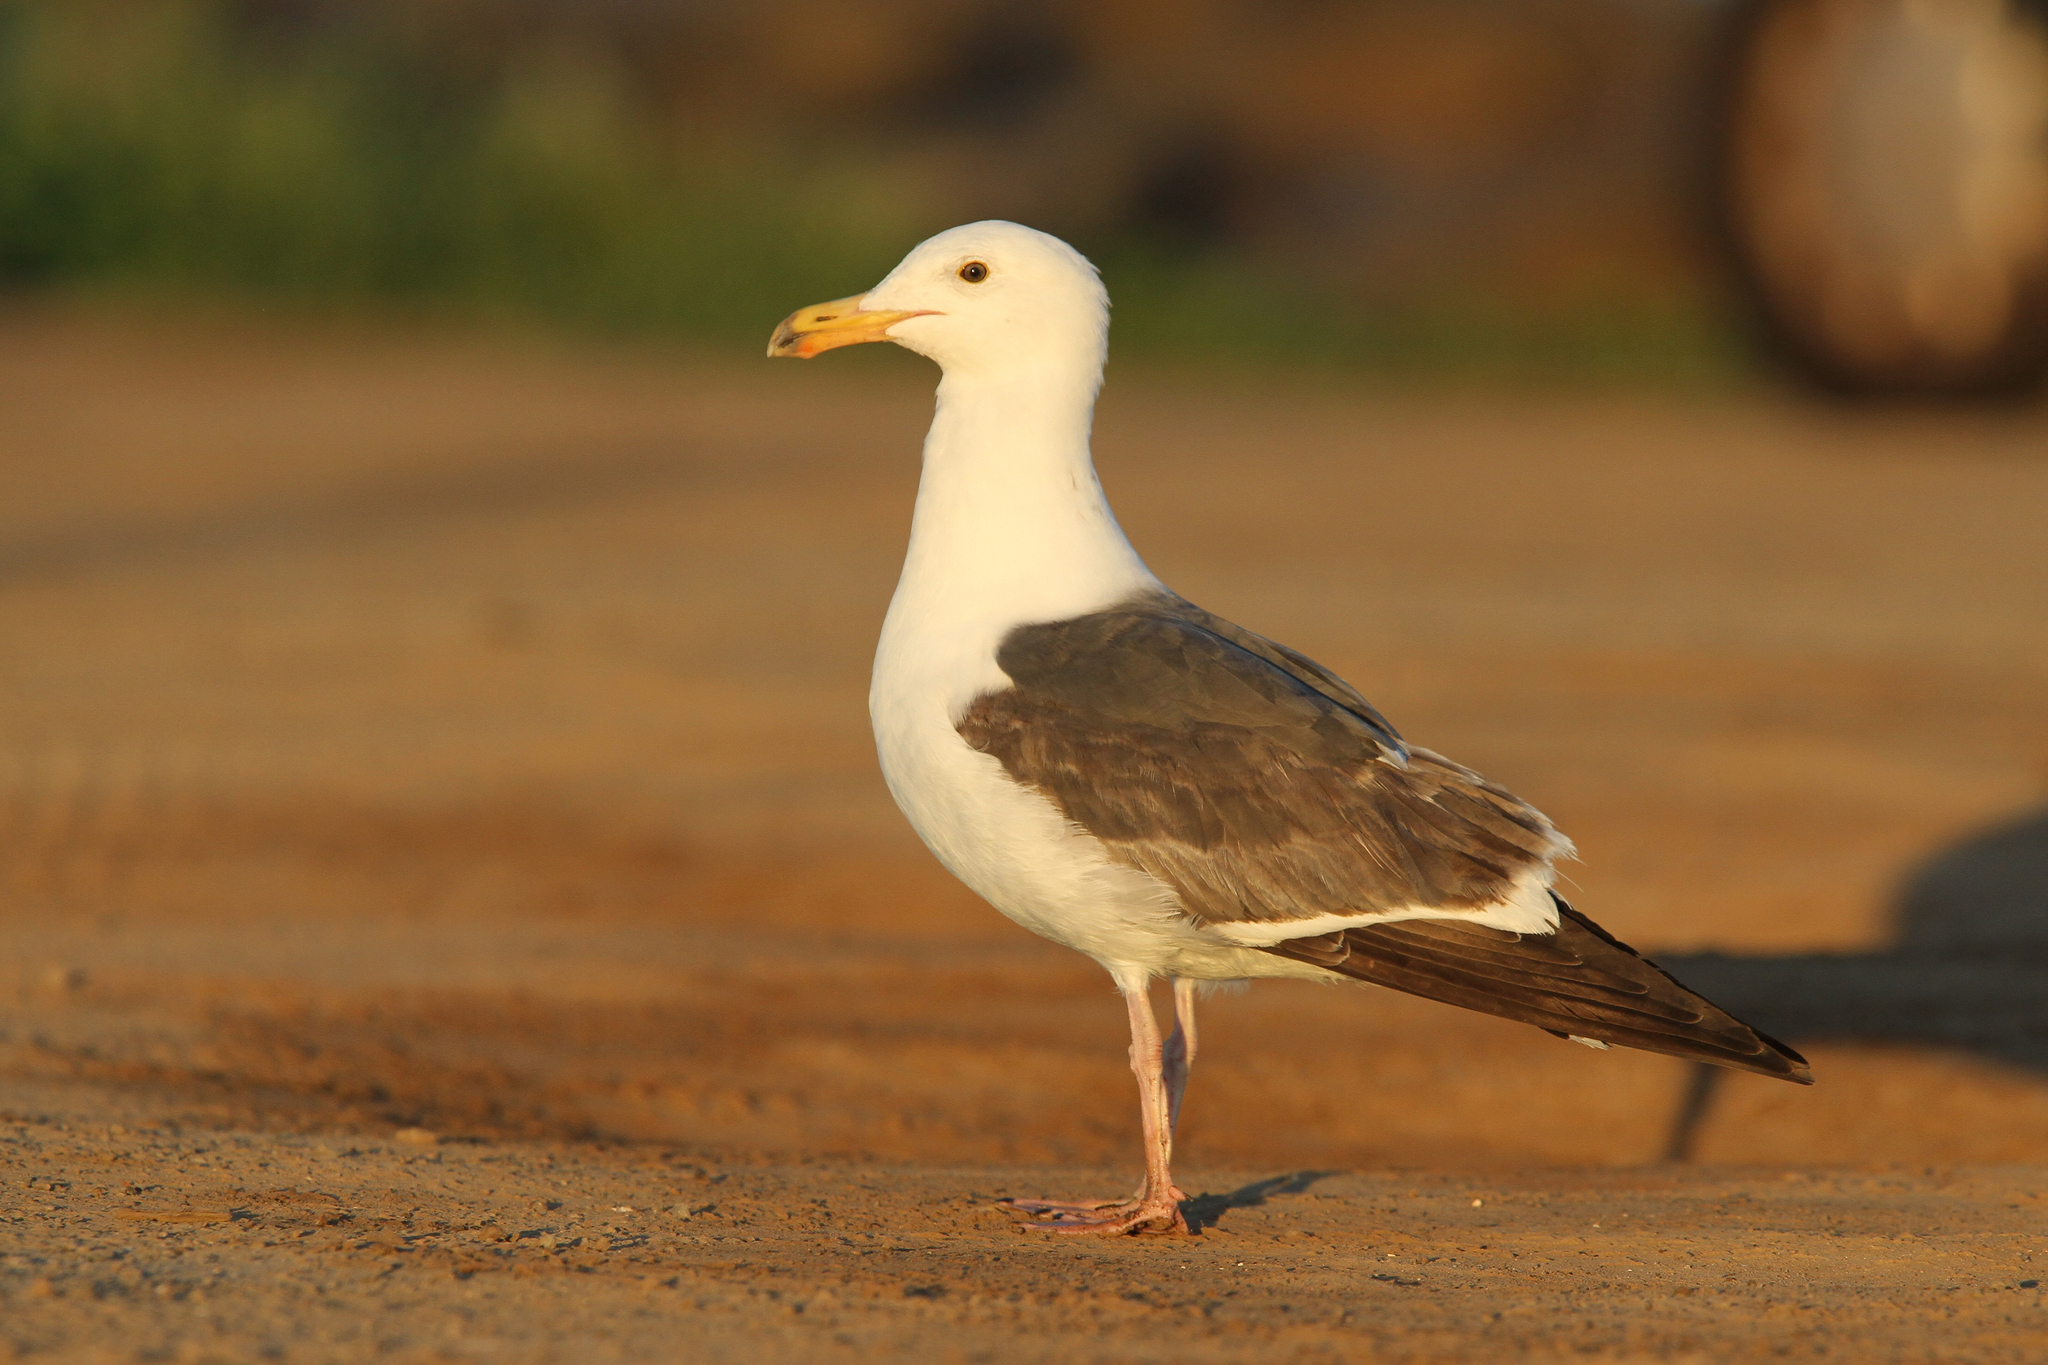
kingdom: Animalia
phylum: Chordata
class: Aves
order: Charadriiformes
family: Laridae
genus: Larus
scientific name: Larus occidentalis
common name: Western gull
